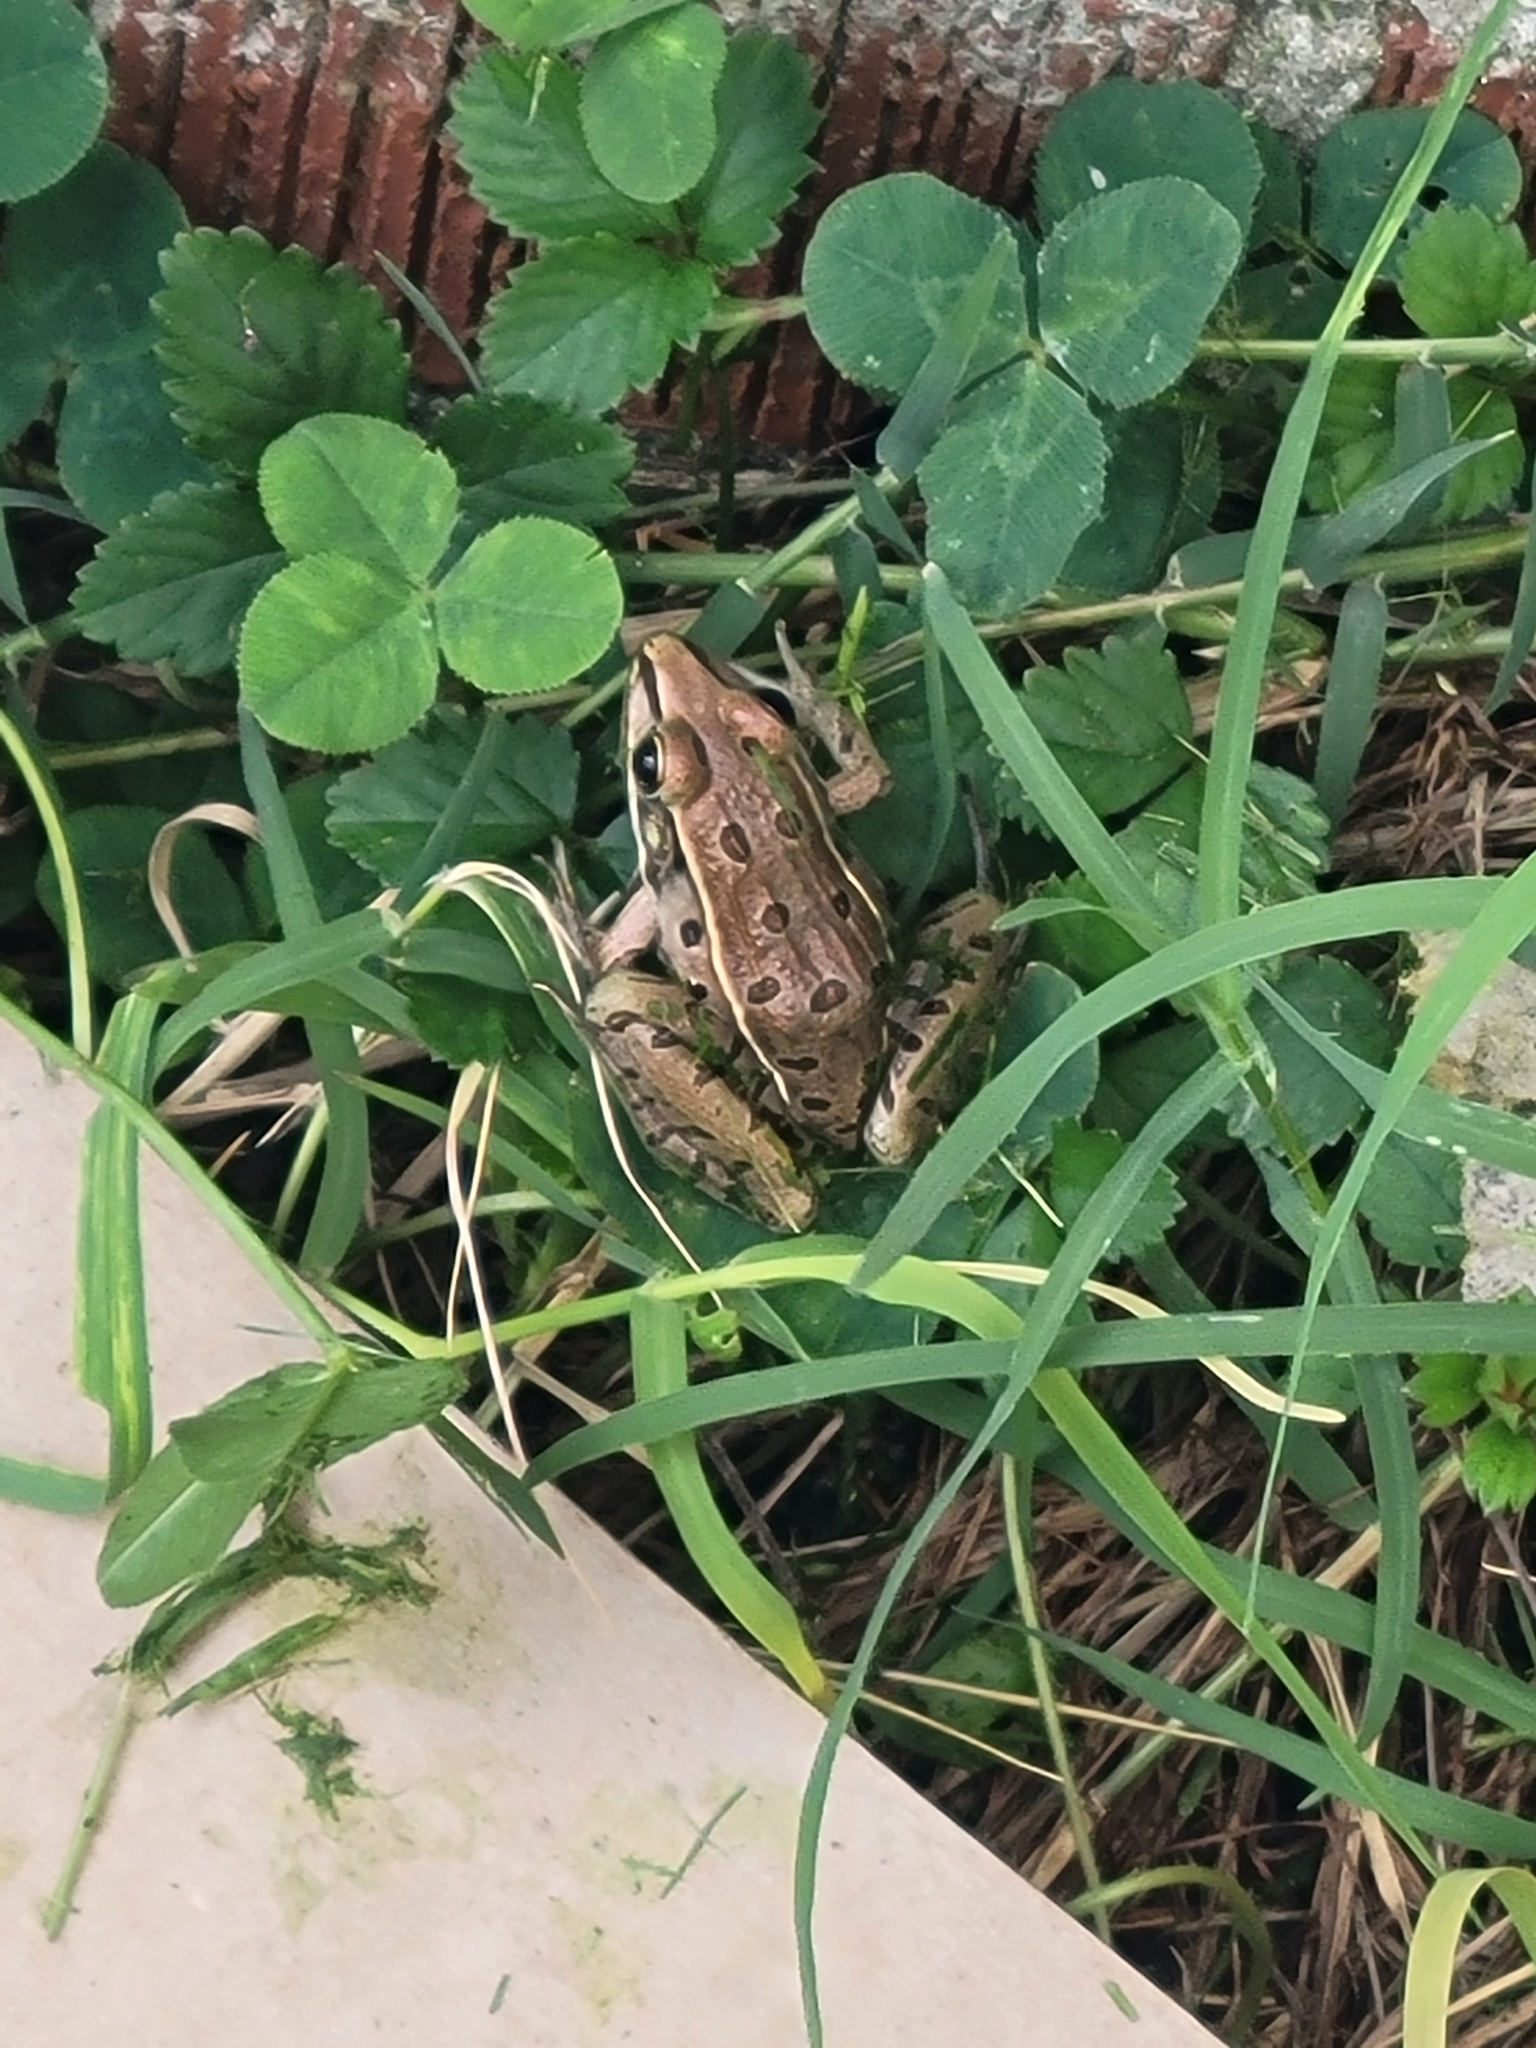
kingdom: Animalia
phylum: Chordata
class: Amphibia
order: Anura
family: Ranidae
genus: Lithobates
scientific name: Lithobates sphenocephalus
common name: Southern leopard frog
